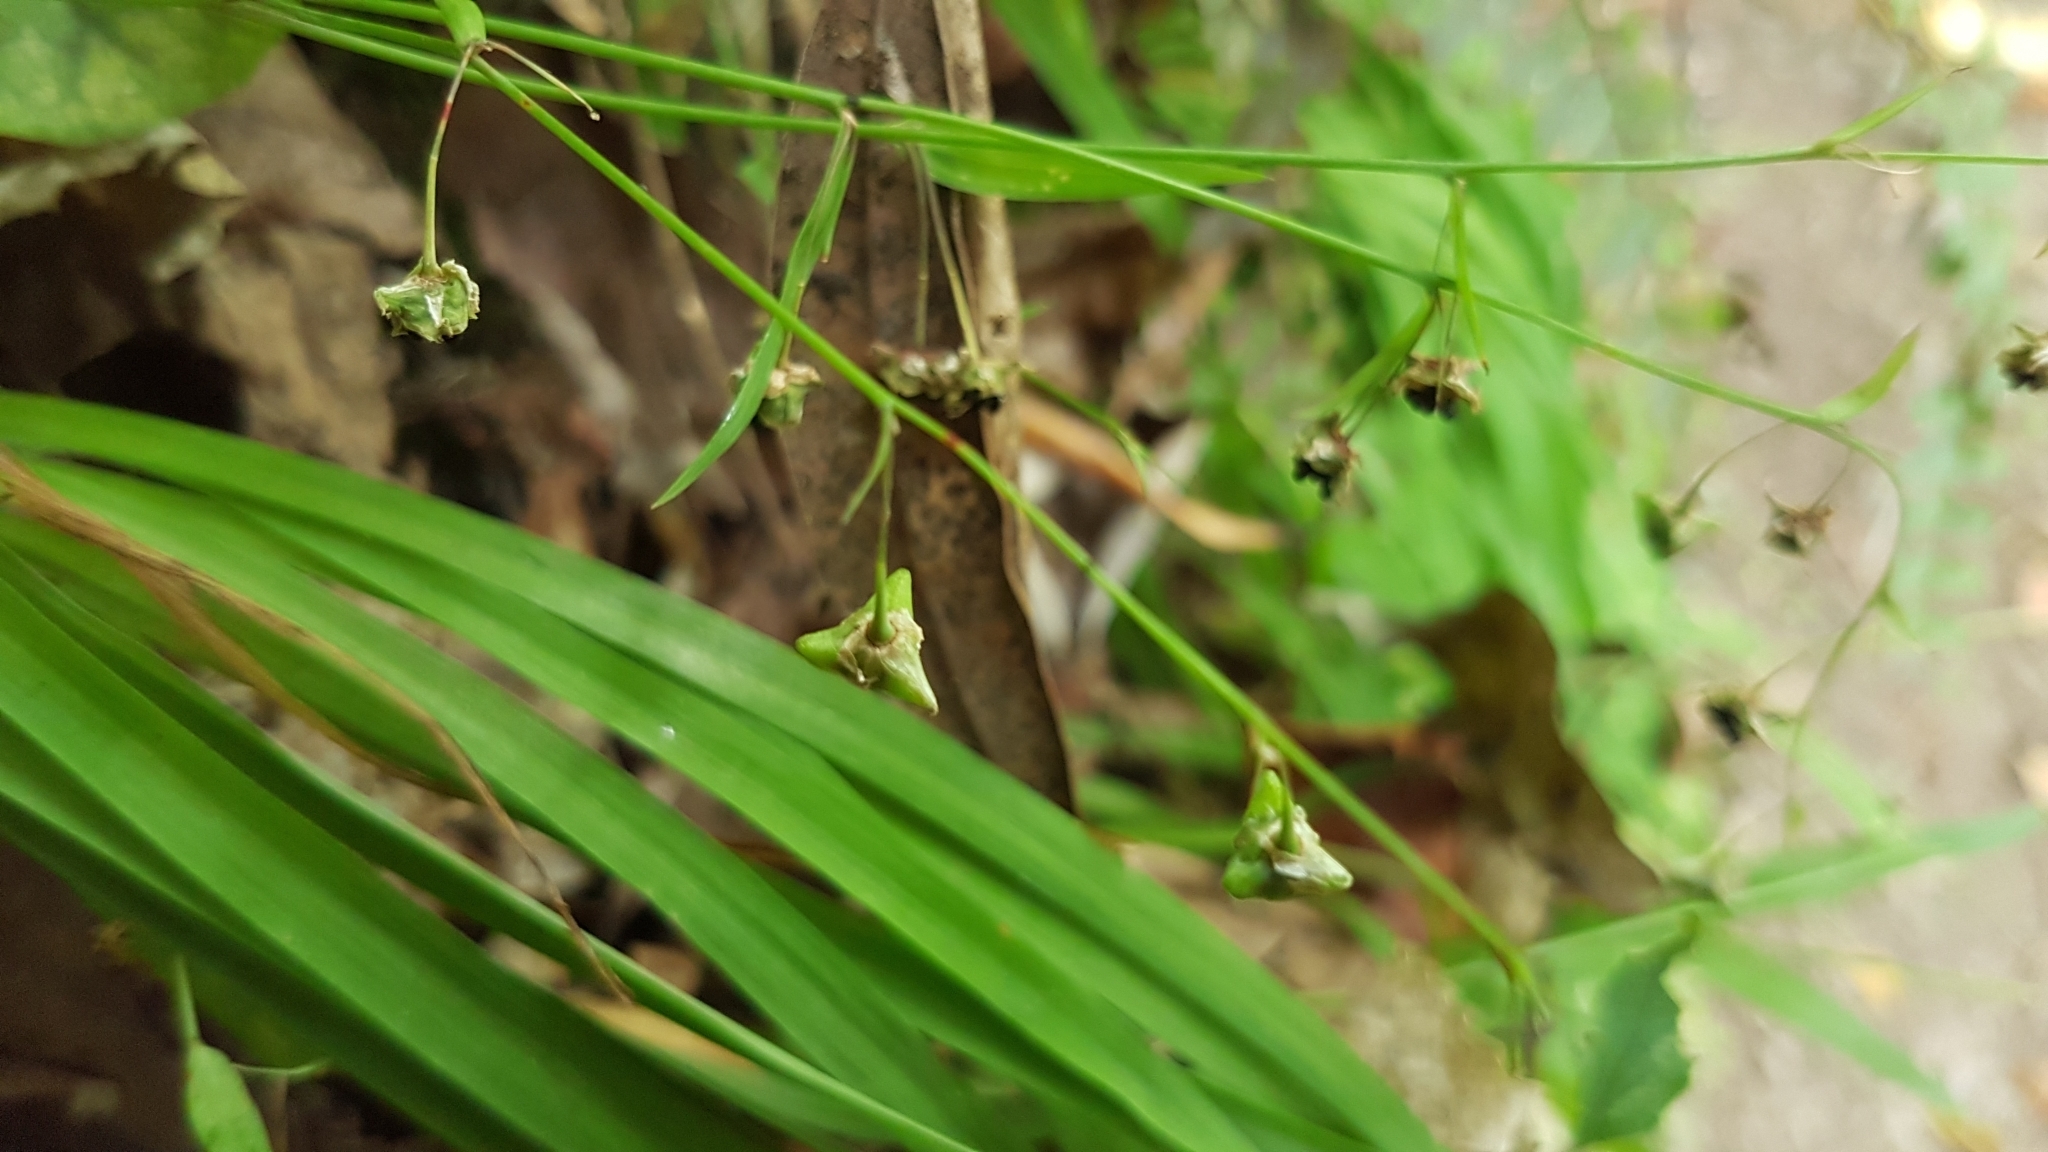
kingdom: Plantae
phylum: Tracheophyta
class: Liliopsida
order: Asparagales
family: Asparagaceae
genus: Arthropodium
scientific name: Arthropodium candidum
